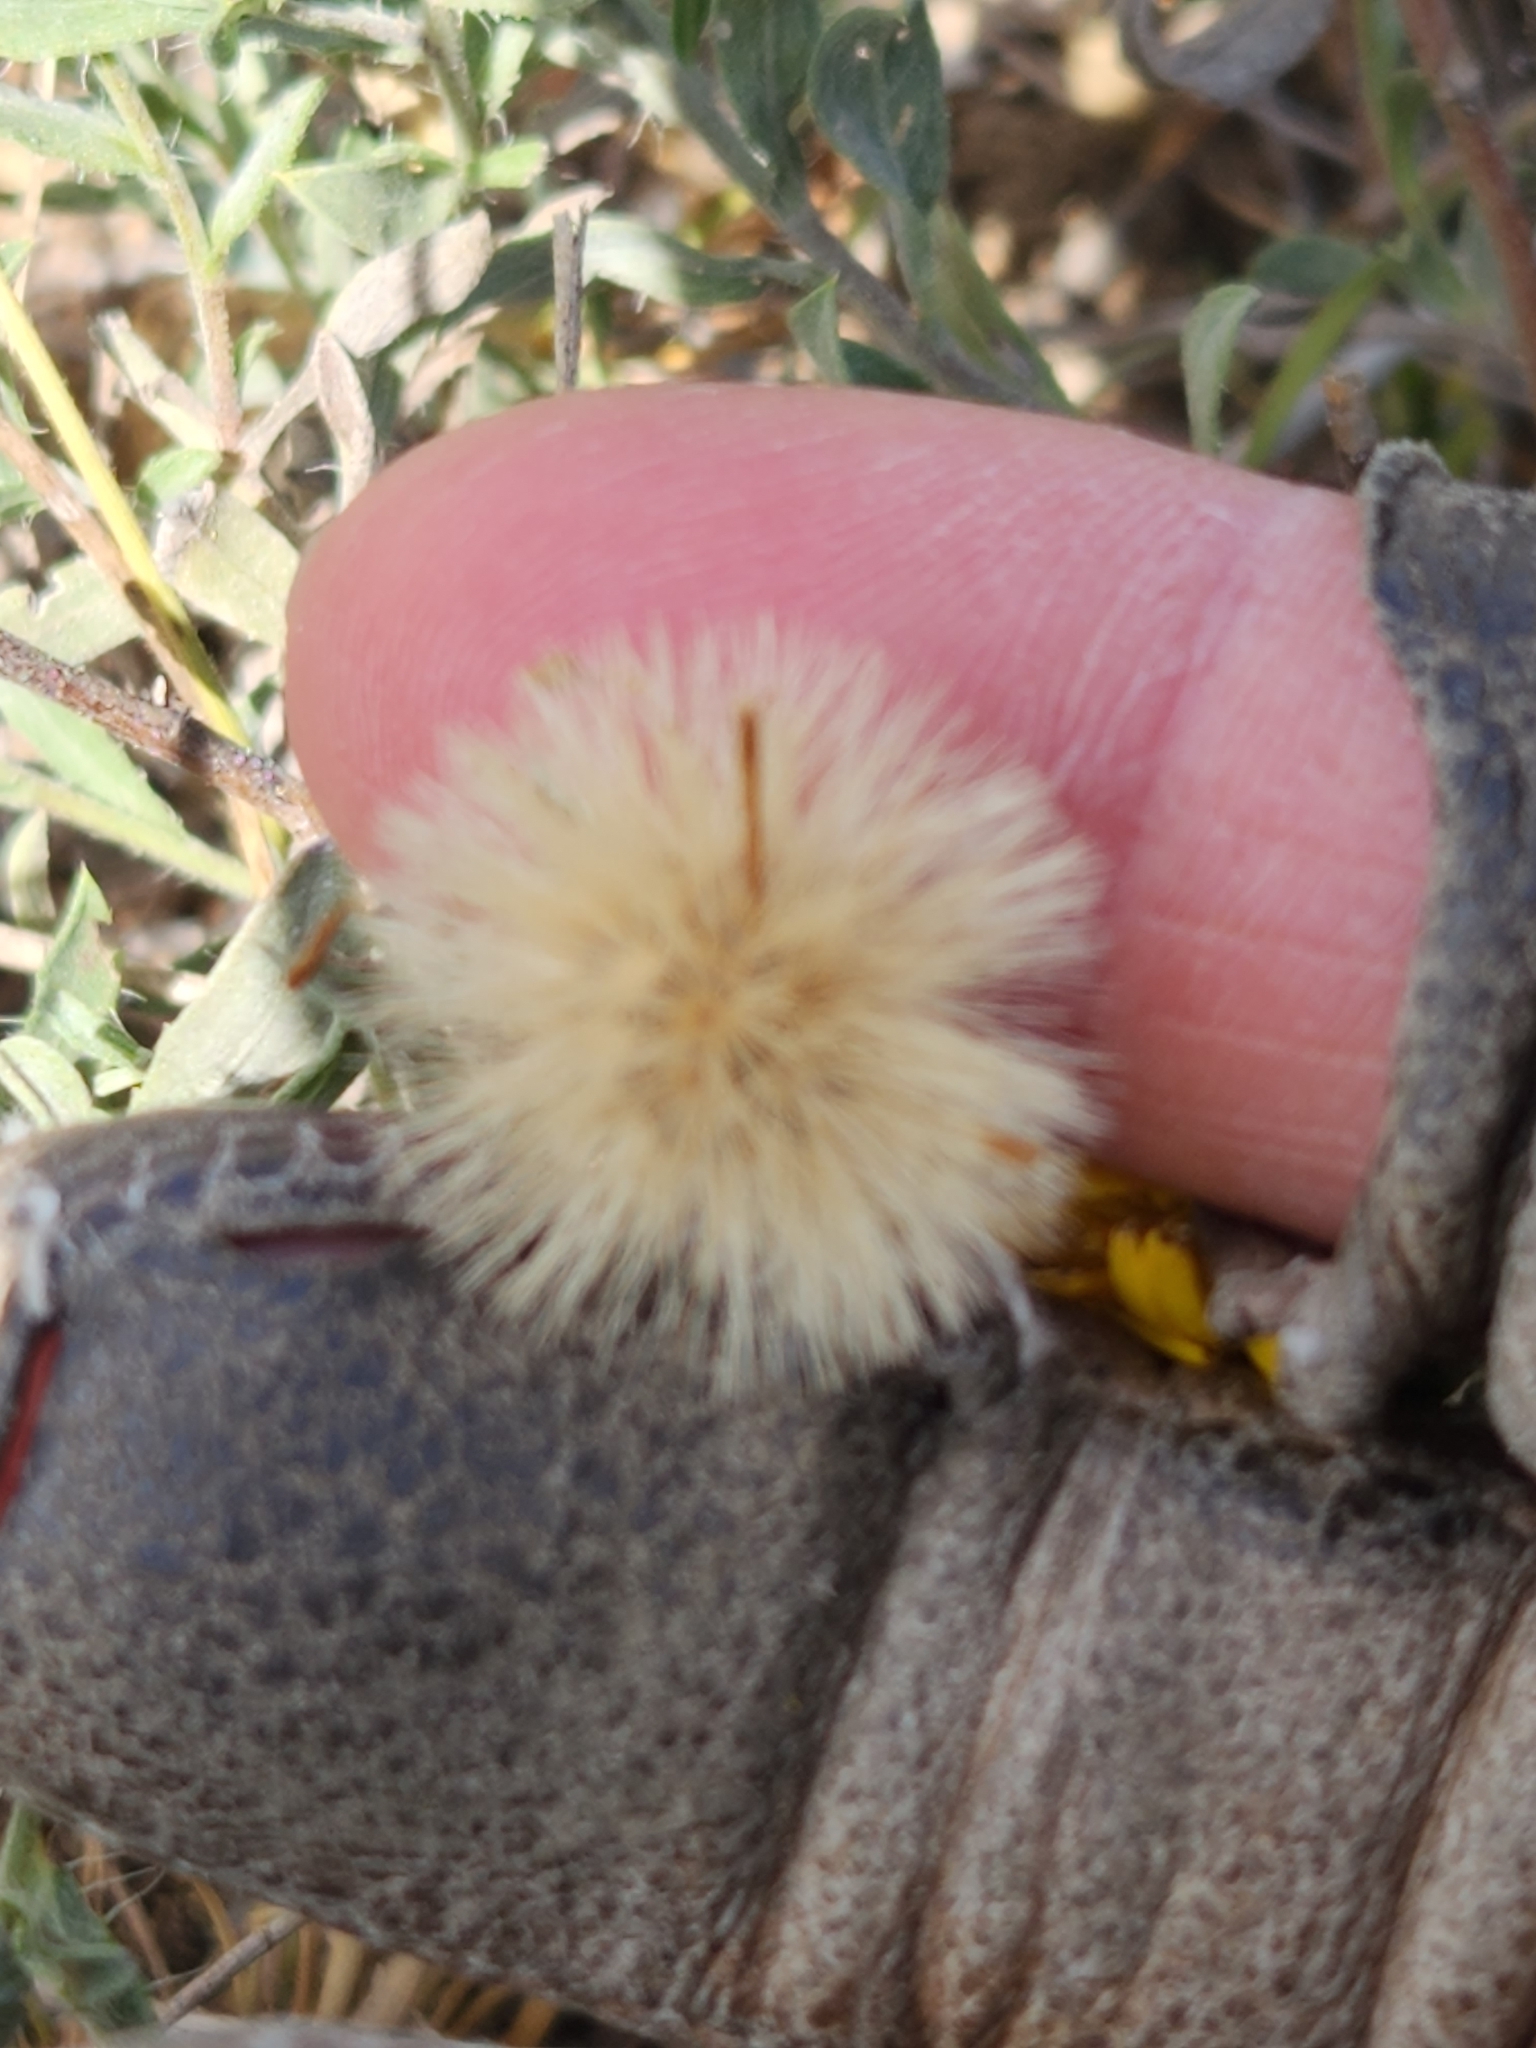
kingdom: Plantae
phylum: Tracheophyta
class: Magnoliopsida
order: Asterales
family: Asteraceae
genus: Heterotheca
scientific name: Heterotheca canescens
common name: Hoary golden-aster
